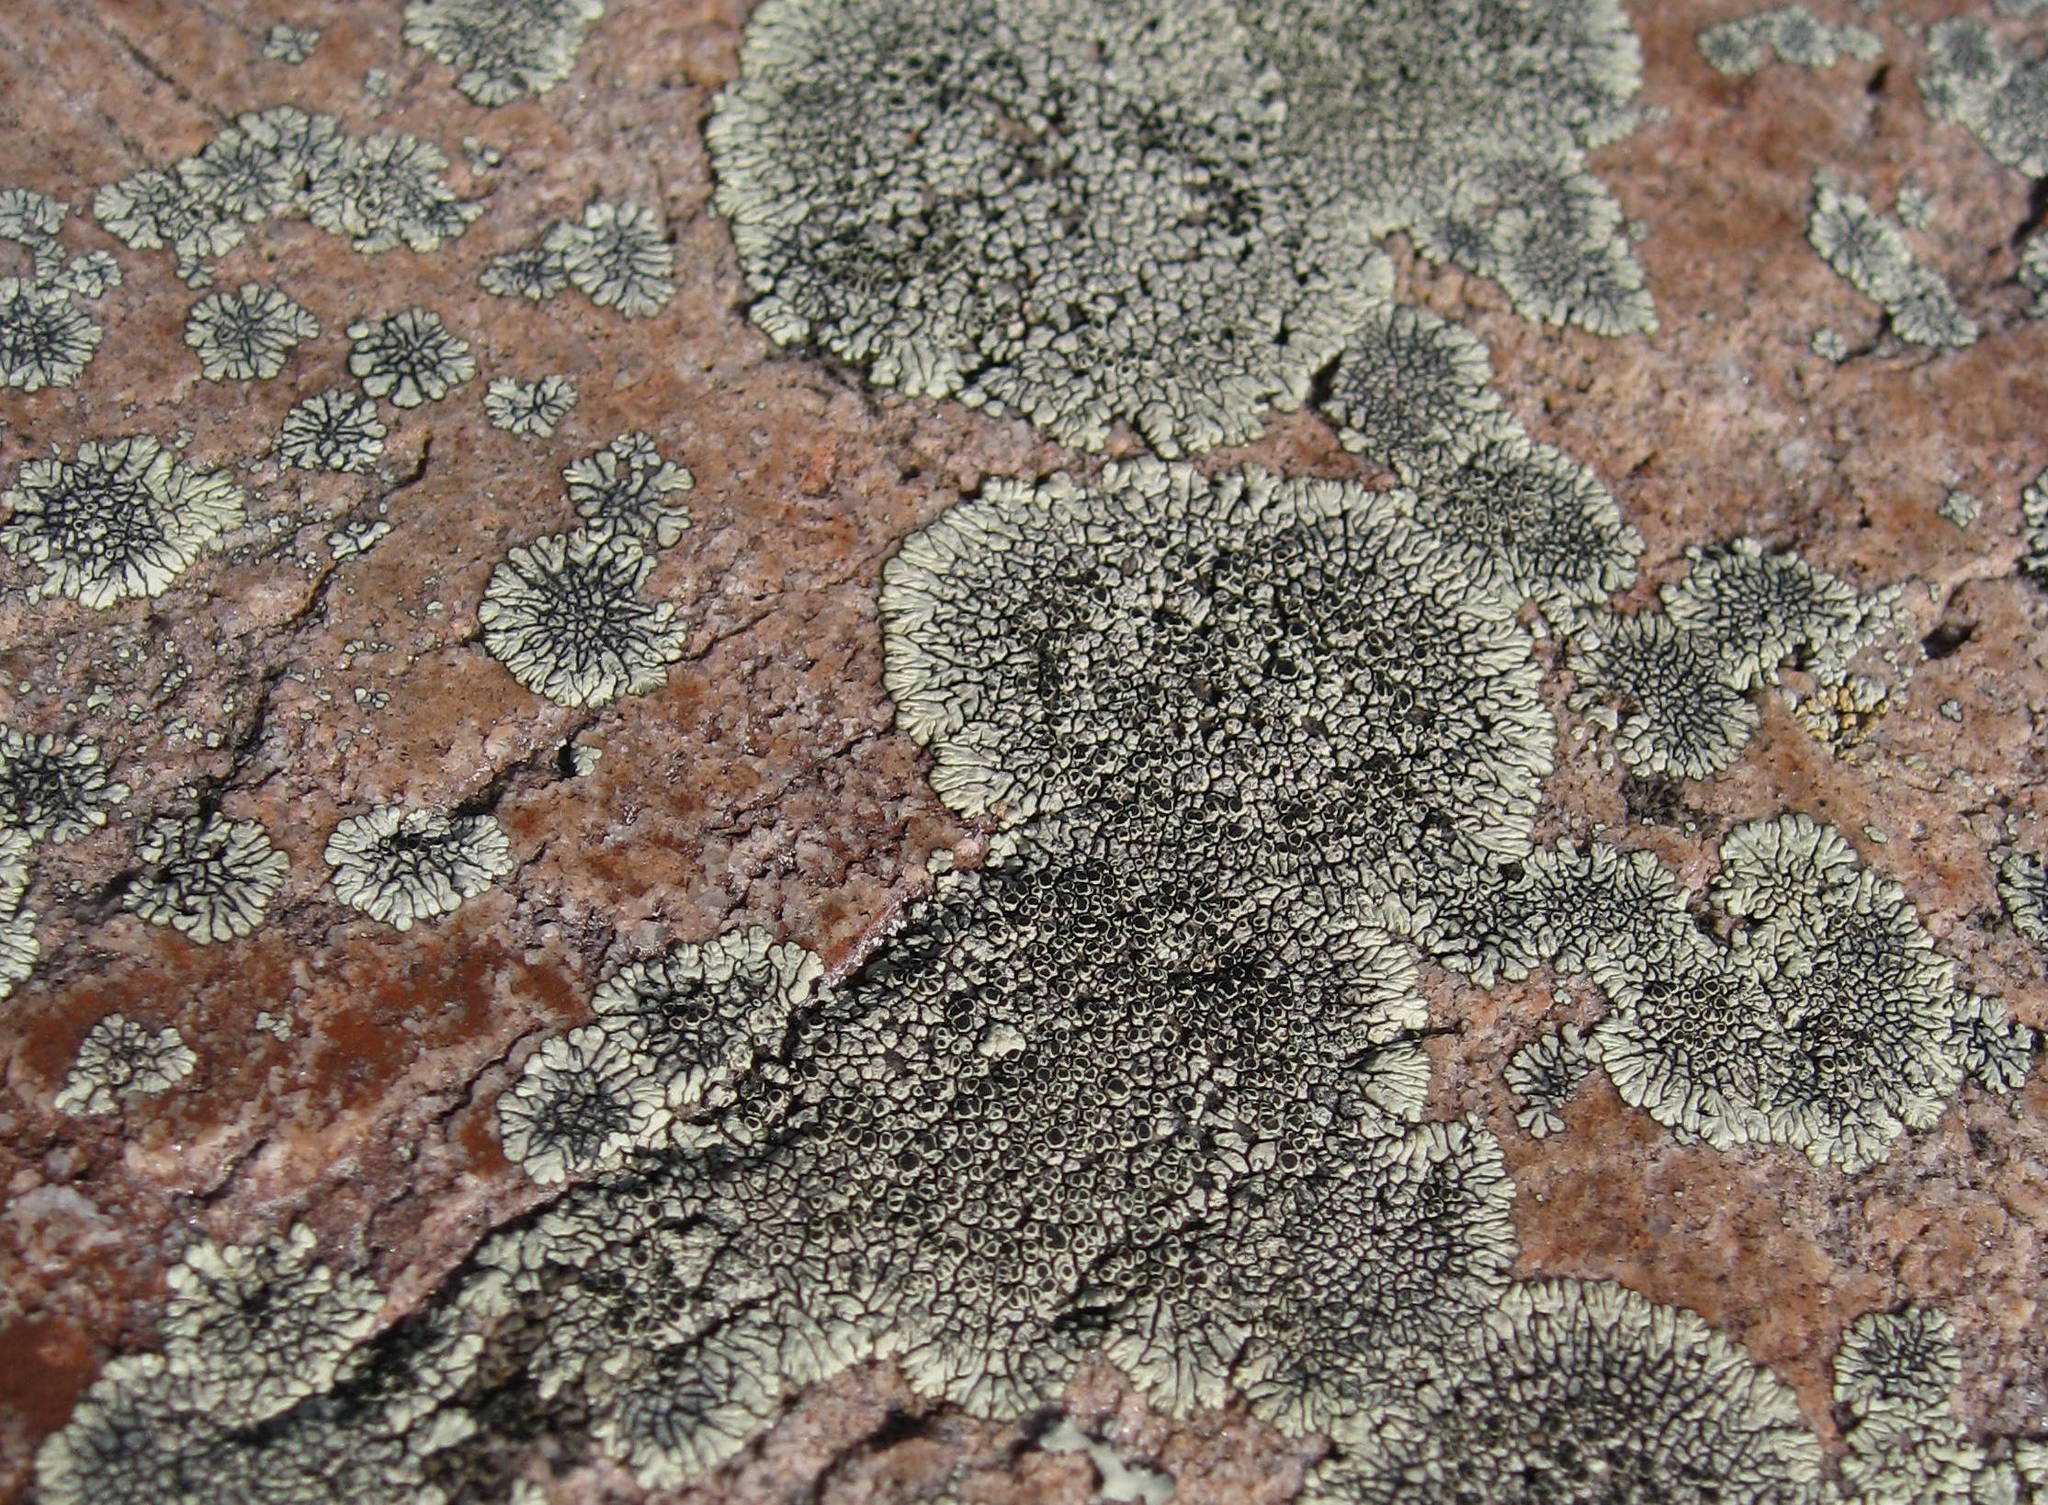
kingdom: Fungi
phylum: Ascomycota
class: Lecanoromycetes
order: Caliciales
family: Caliciaceae
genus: Dimelaena
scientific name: Dimelaena oreina
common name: Golden moonglow lichen
